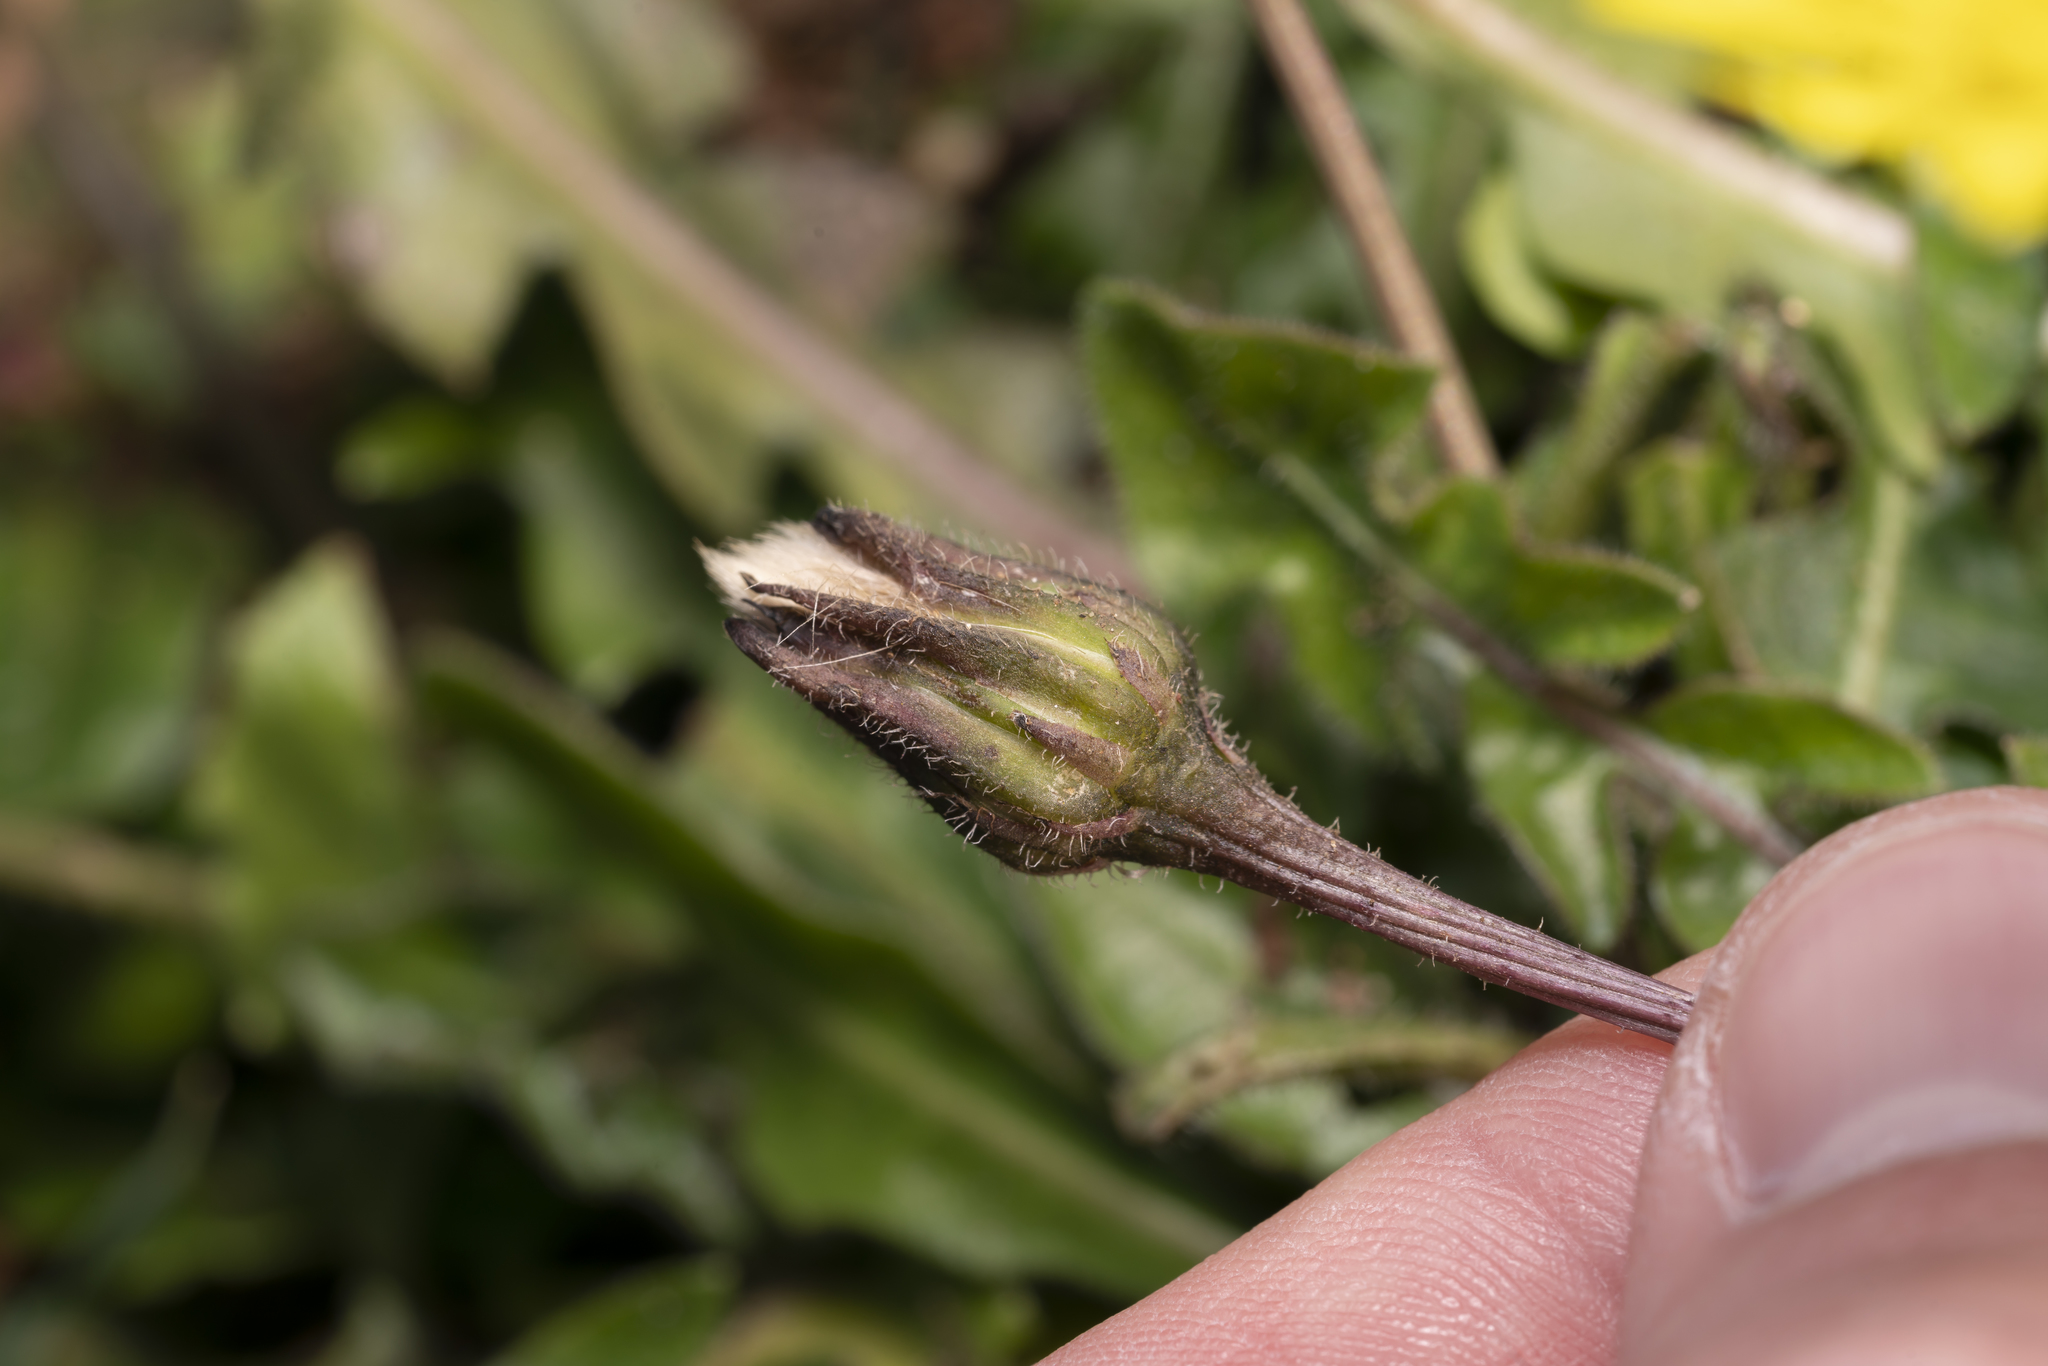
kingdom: Plantae
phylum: Tracheophyta
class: Magnoliopsida
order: Asterales
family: Asteraceae
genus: Leontodon
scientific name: Leontodon tuberosus
